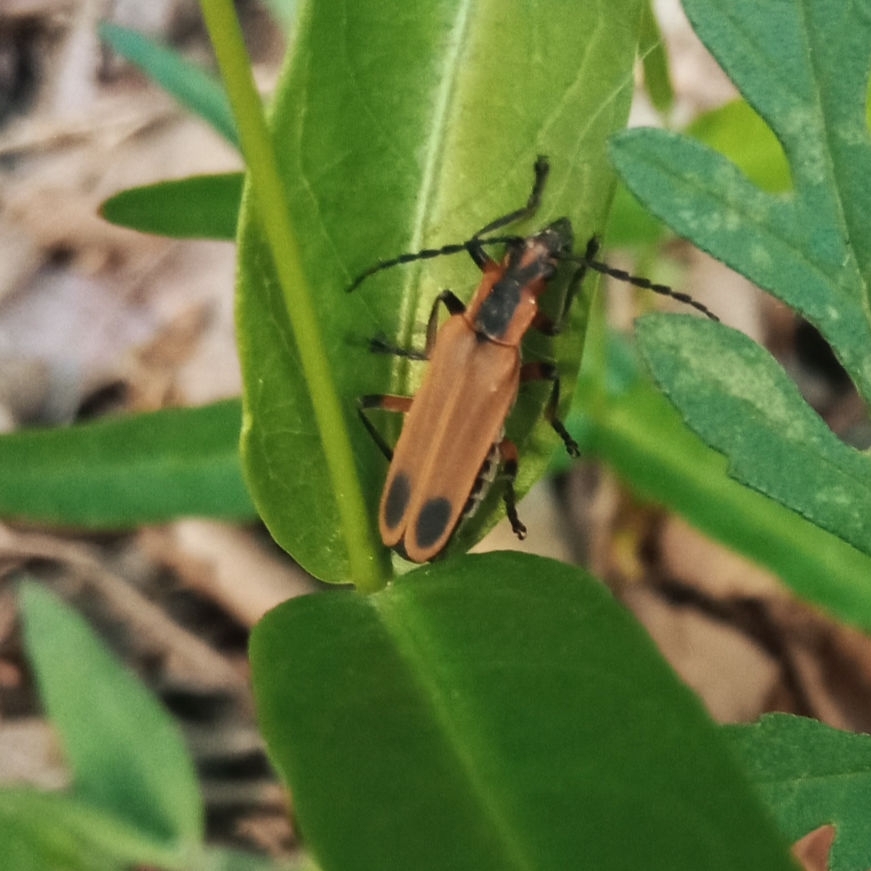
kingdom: Animalia
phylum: Arthropoda
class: Insecta
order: Coleoptera
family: Cantharidae
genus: Chauliognathus
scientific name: Chauliognathus marginatus
